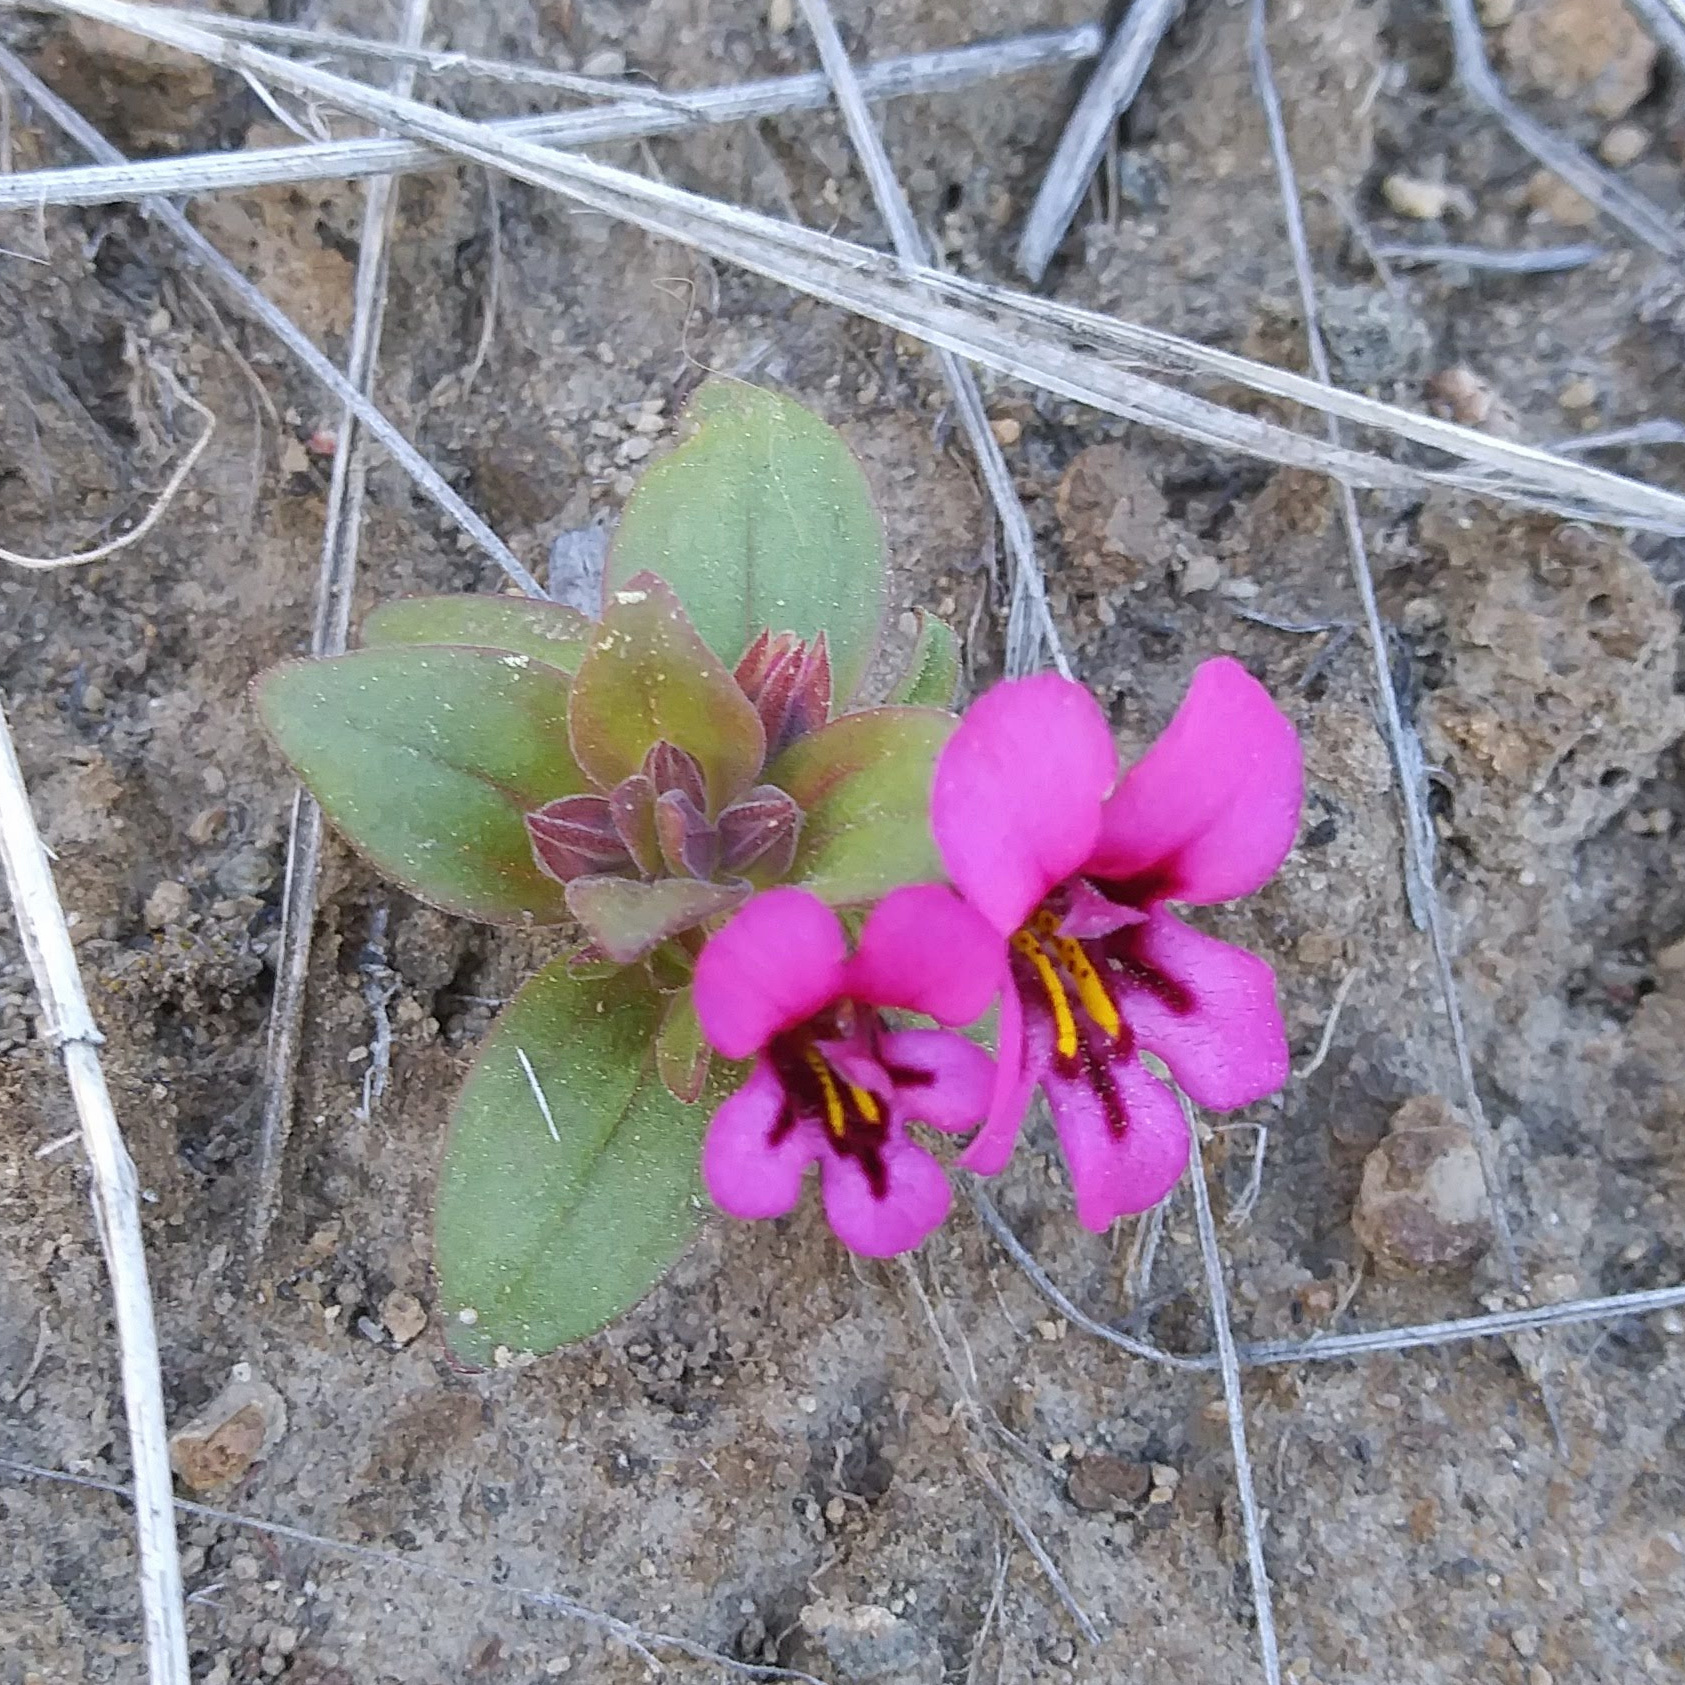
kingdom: Plantae
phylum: Tracheophyta
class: Magnoliopsida
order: Lamiales
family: Phrymaceae
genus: Diplacus
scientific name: Diplacus nanus
